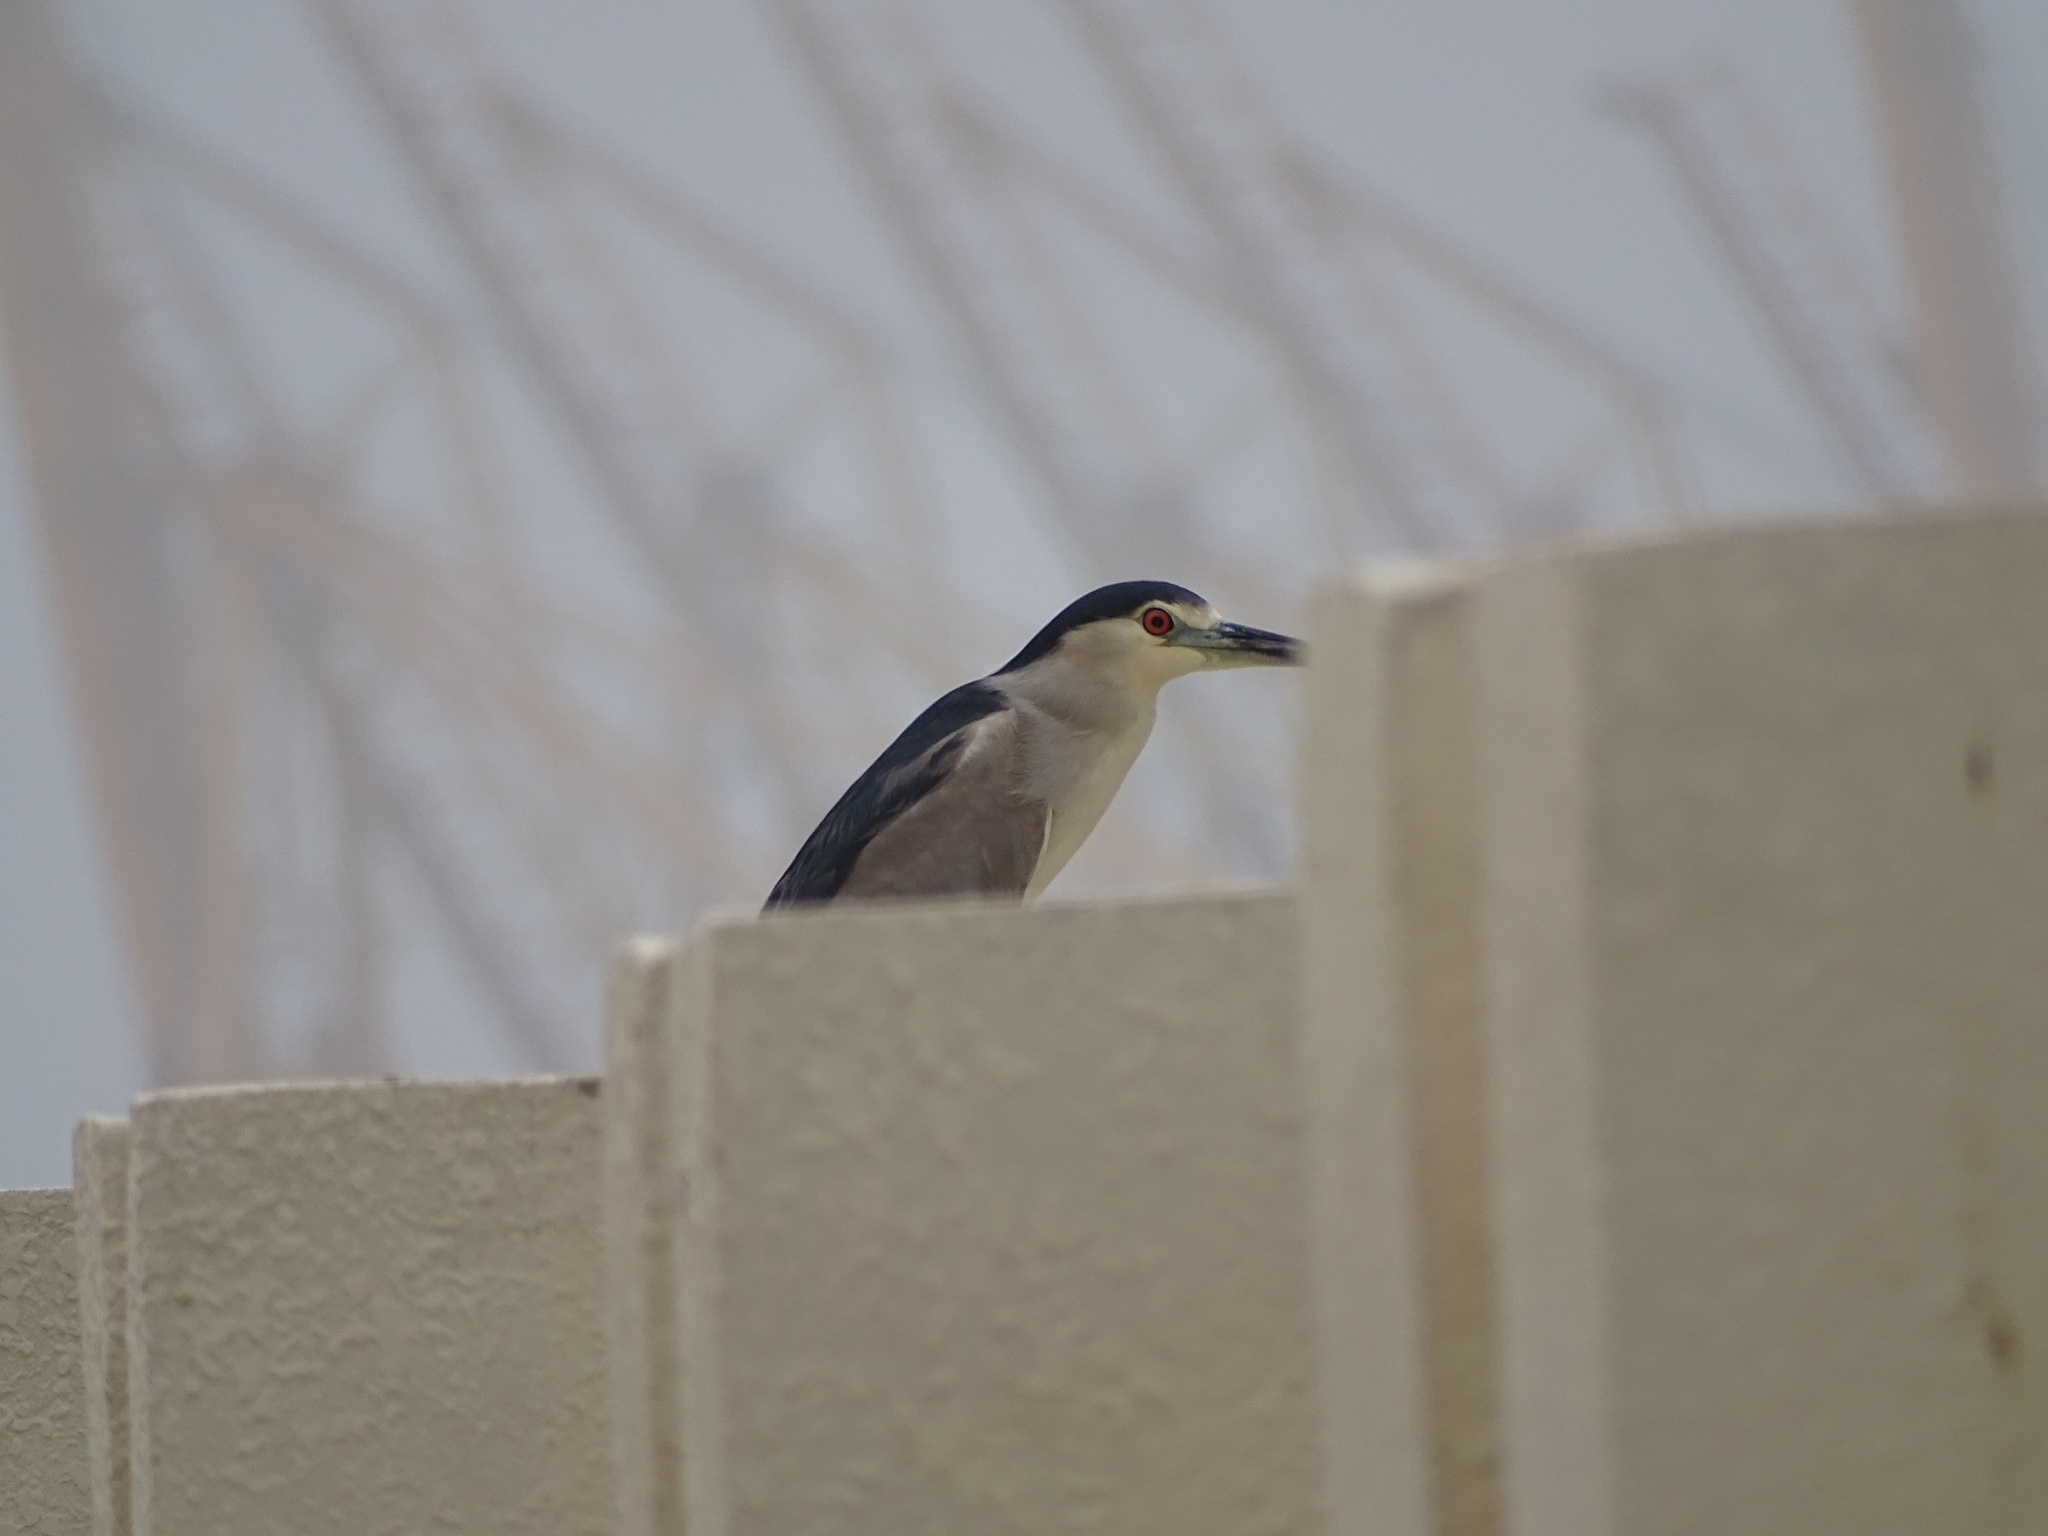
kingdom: Animalia
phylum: Chordata
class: Aves
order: Pelecaniformes
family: Ardeidae
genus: Nycticorax
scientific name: Nycticorax nycticorax
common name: Black-crowned night heron
